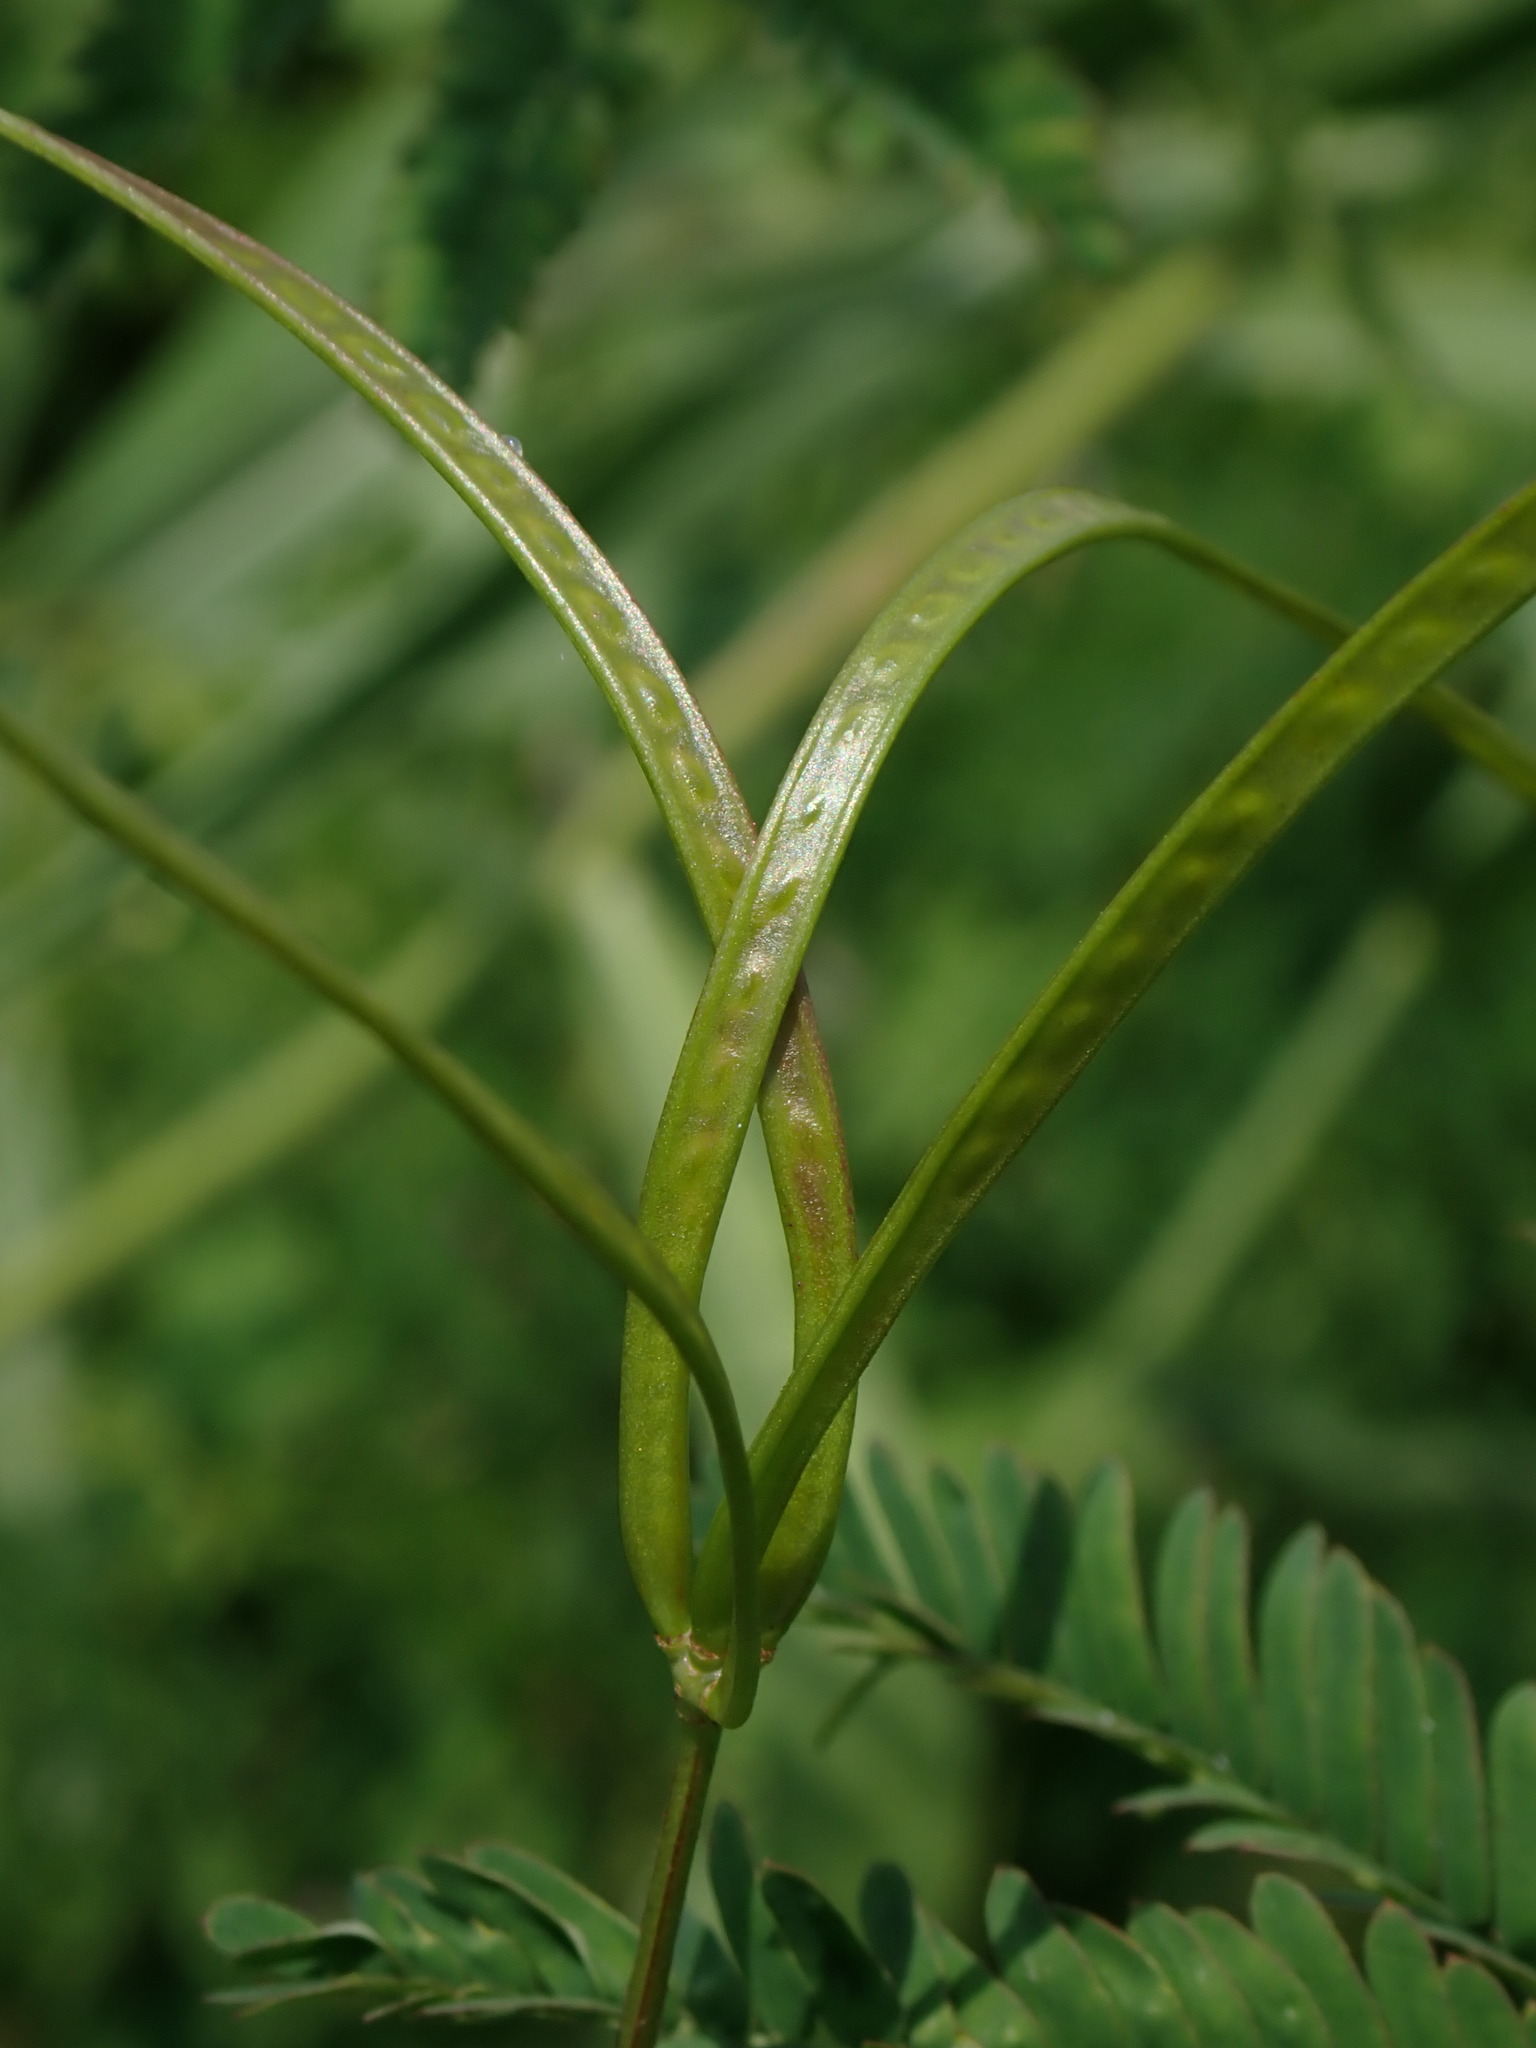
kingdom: Plantae
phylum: Tracheophyta
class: Magnoliopsida
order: Fabales
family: Fabaceae
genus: Desmanthus
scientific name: Desmanthus virgatus
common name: Wild tantan
